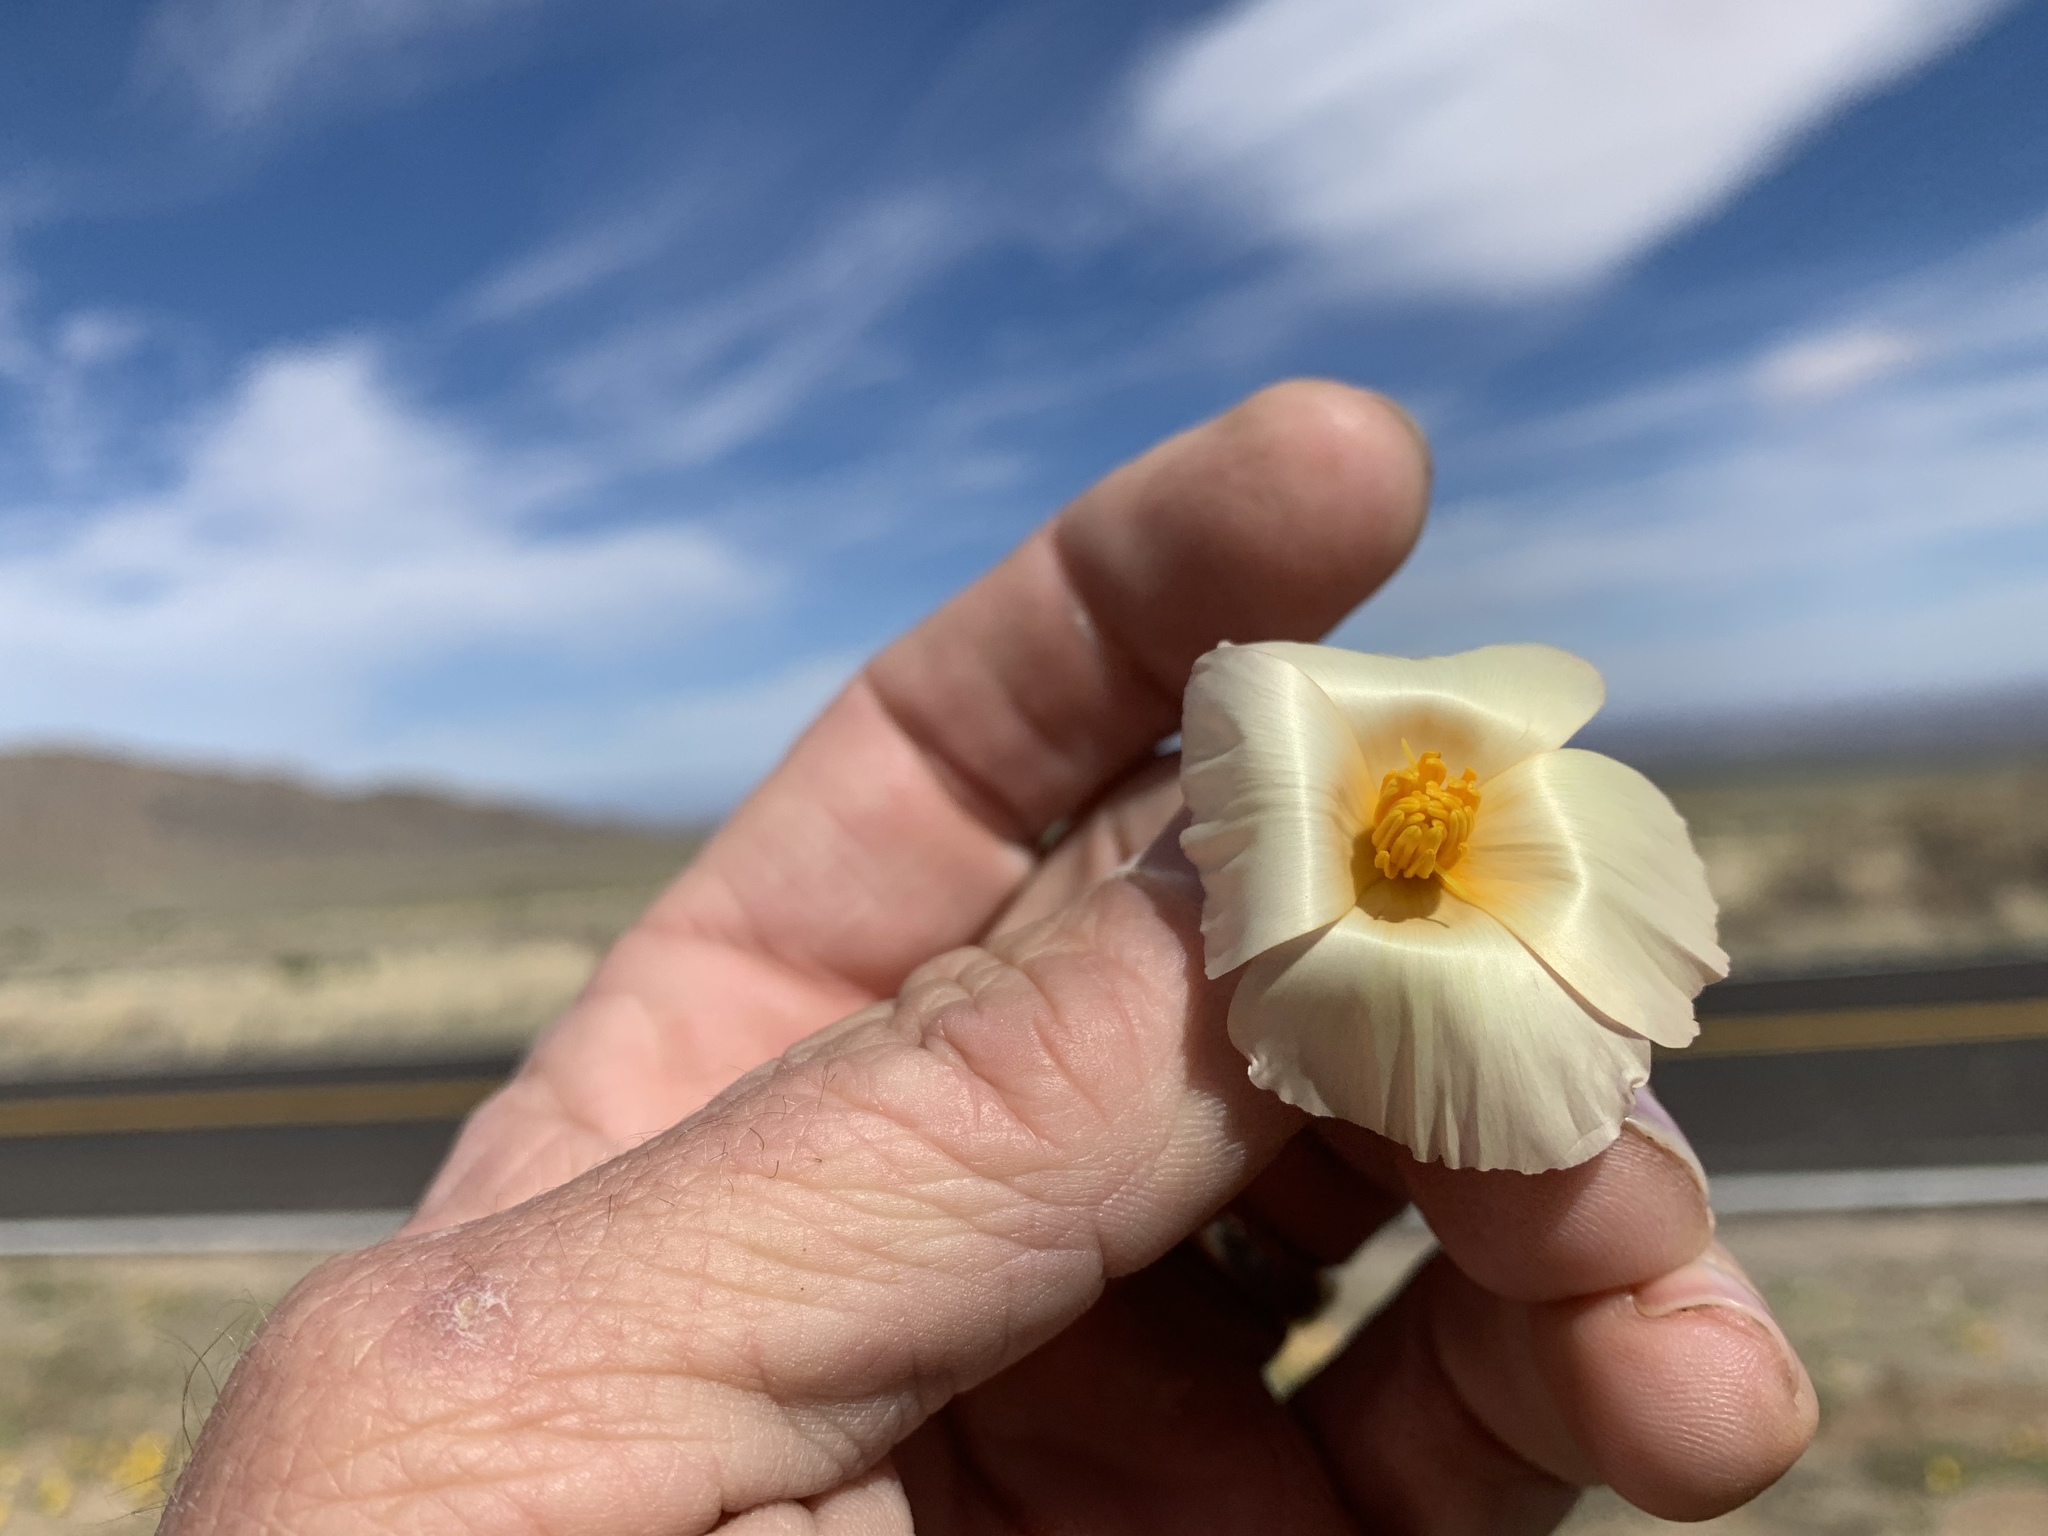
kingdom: Plantae
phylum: Tracheophyta
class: Magnoliopsida
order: Ranunculales
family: Papaveraceae
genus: Eschscholzia
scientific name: Eschscholzia californica
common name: California poppy
